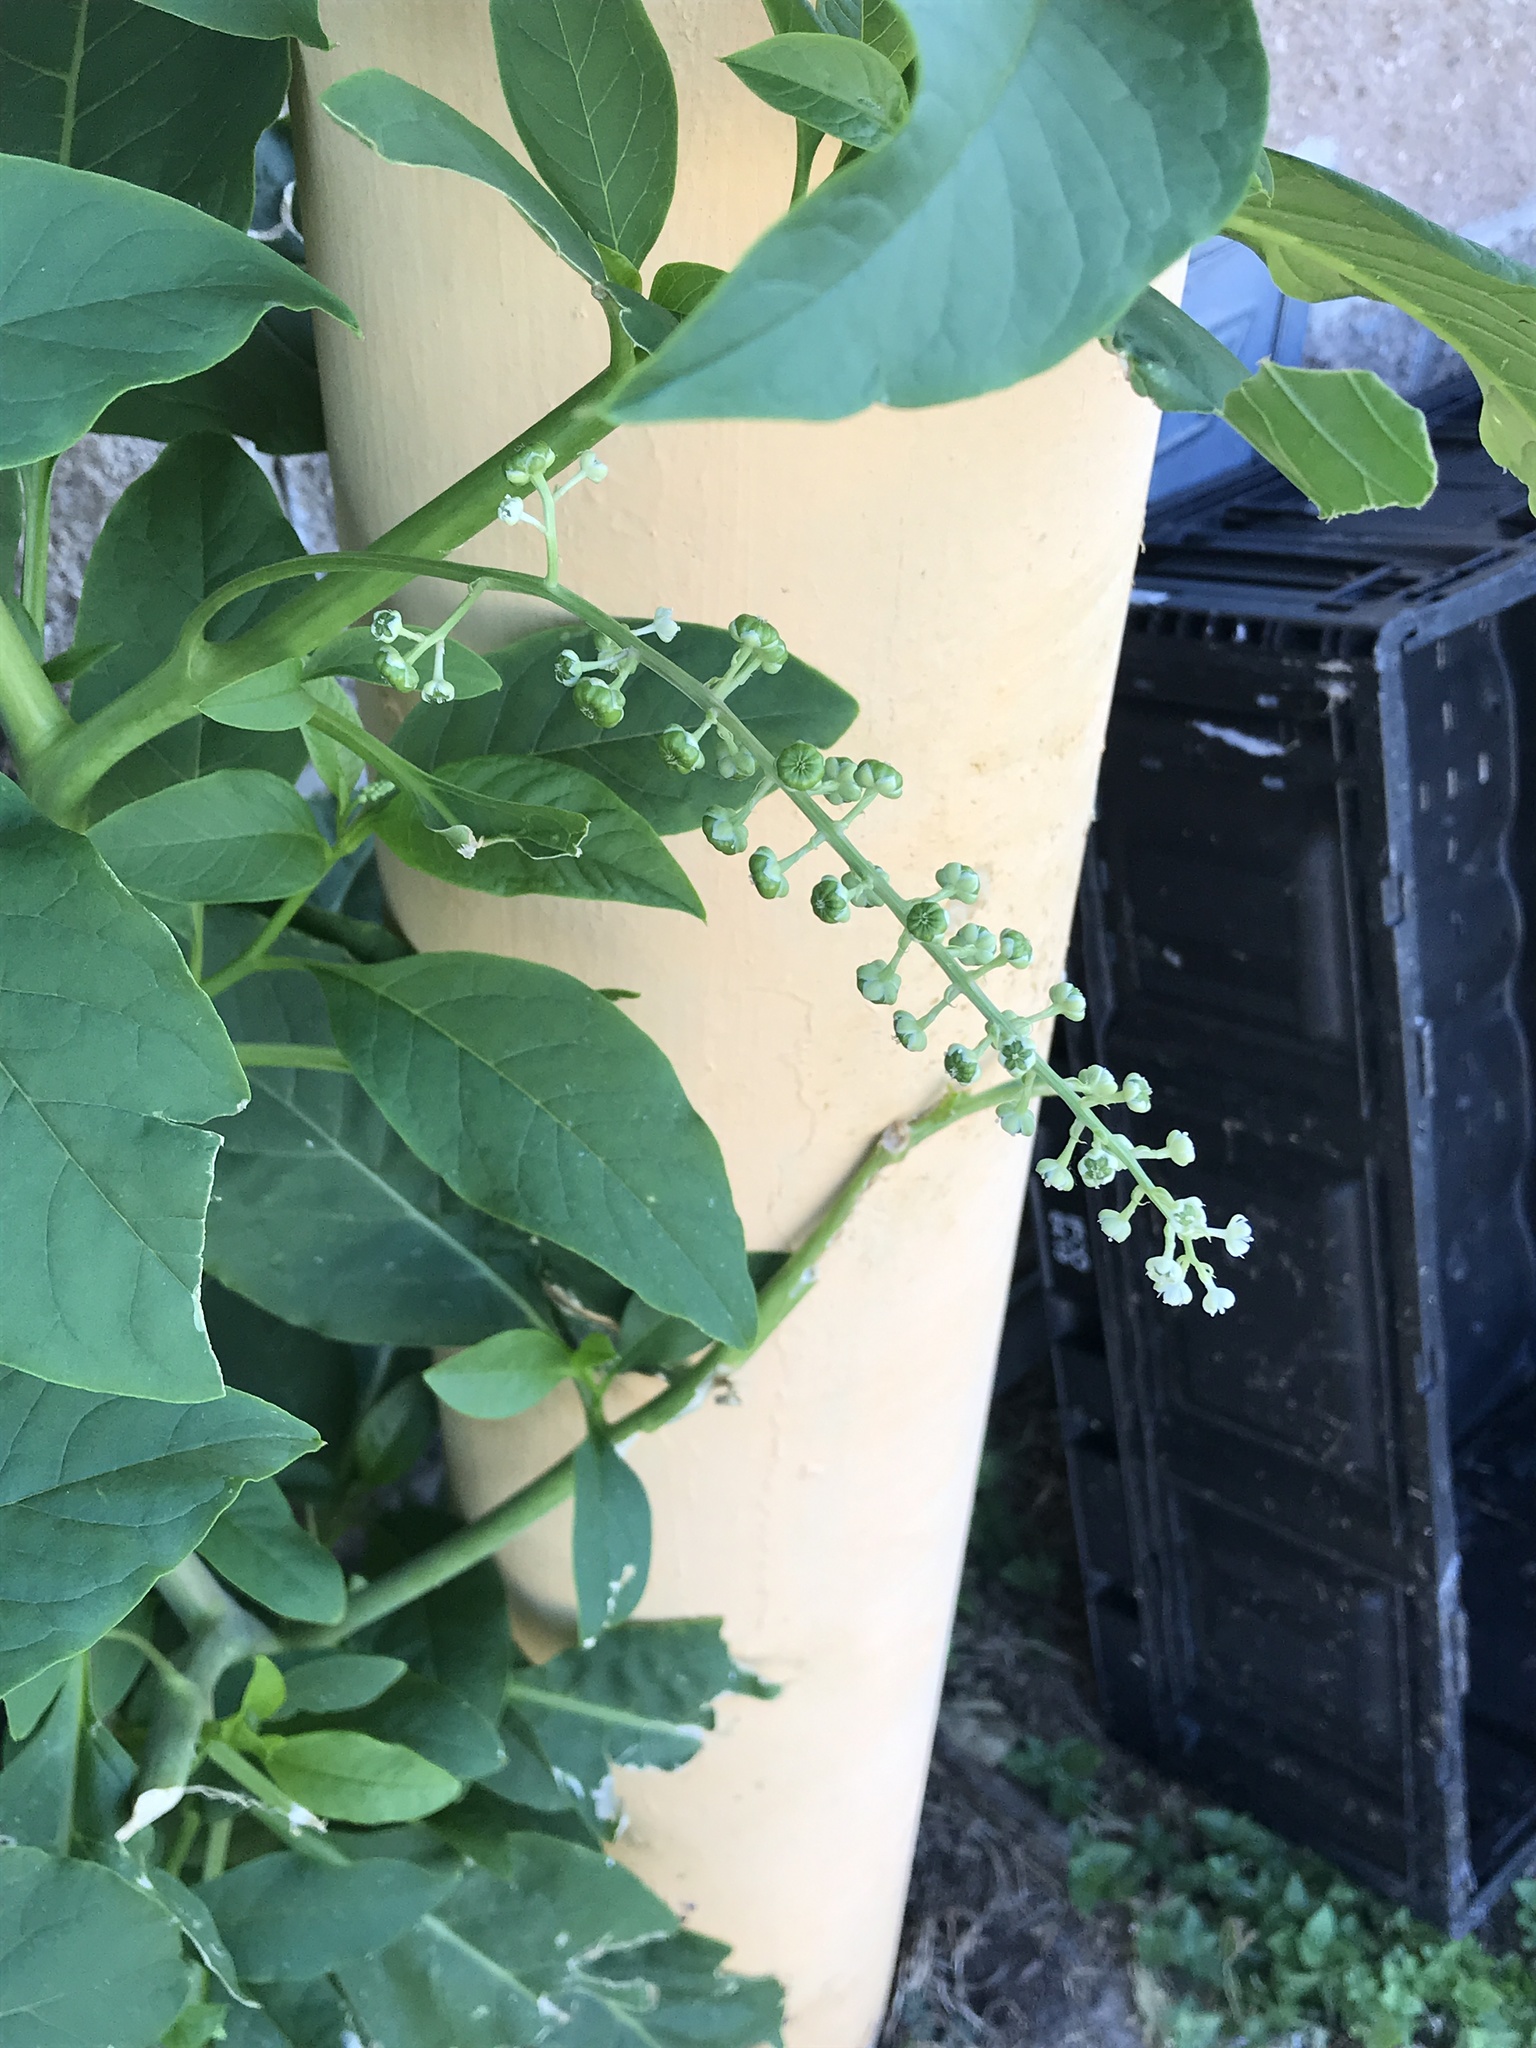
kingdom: Plantae
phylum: Tracheophyta
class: Magnoliopsida
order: Caryophyllales
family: Phytolaccaceae
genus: Phytolacca
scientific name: Phytolacca americana
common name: American pokeweed
